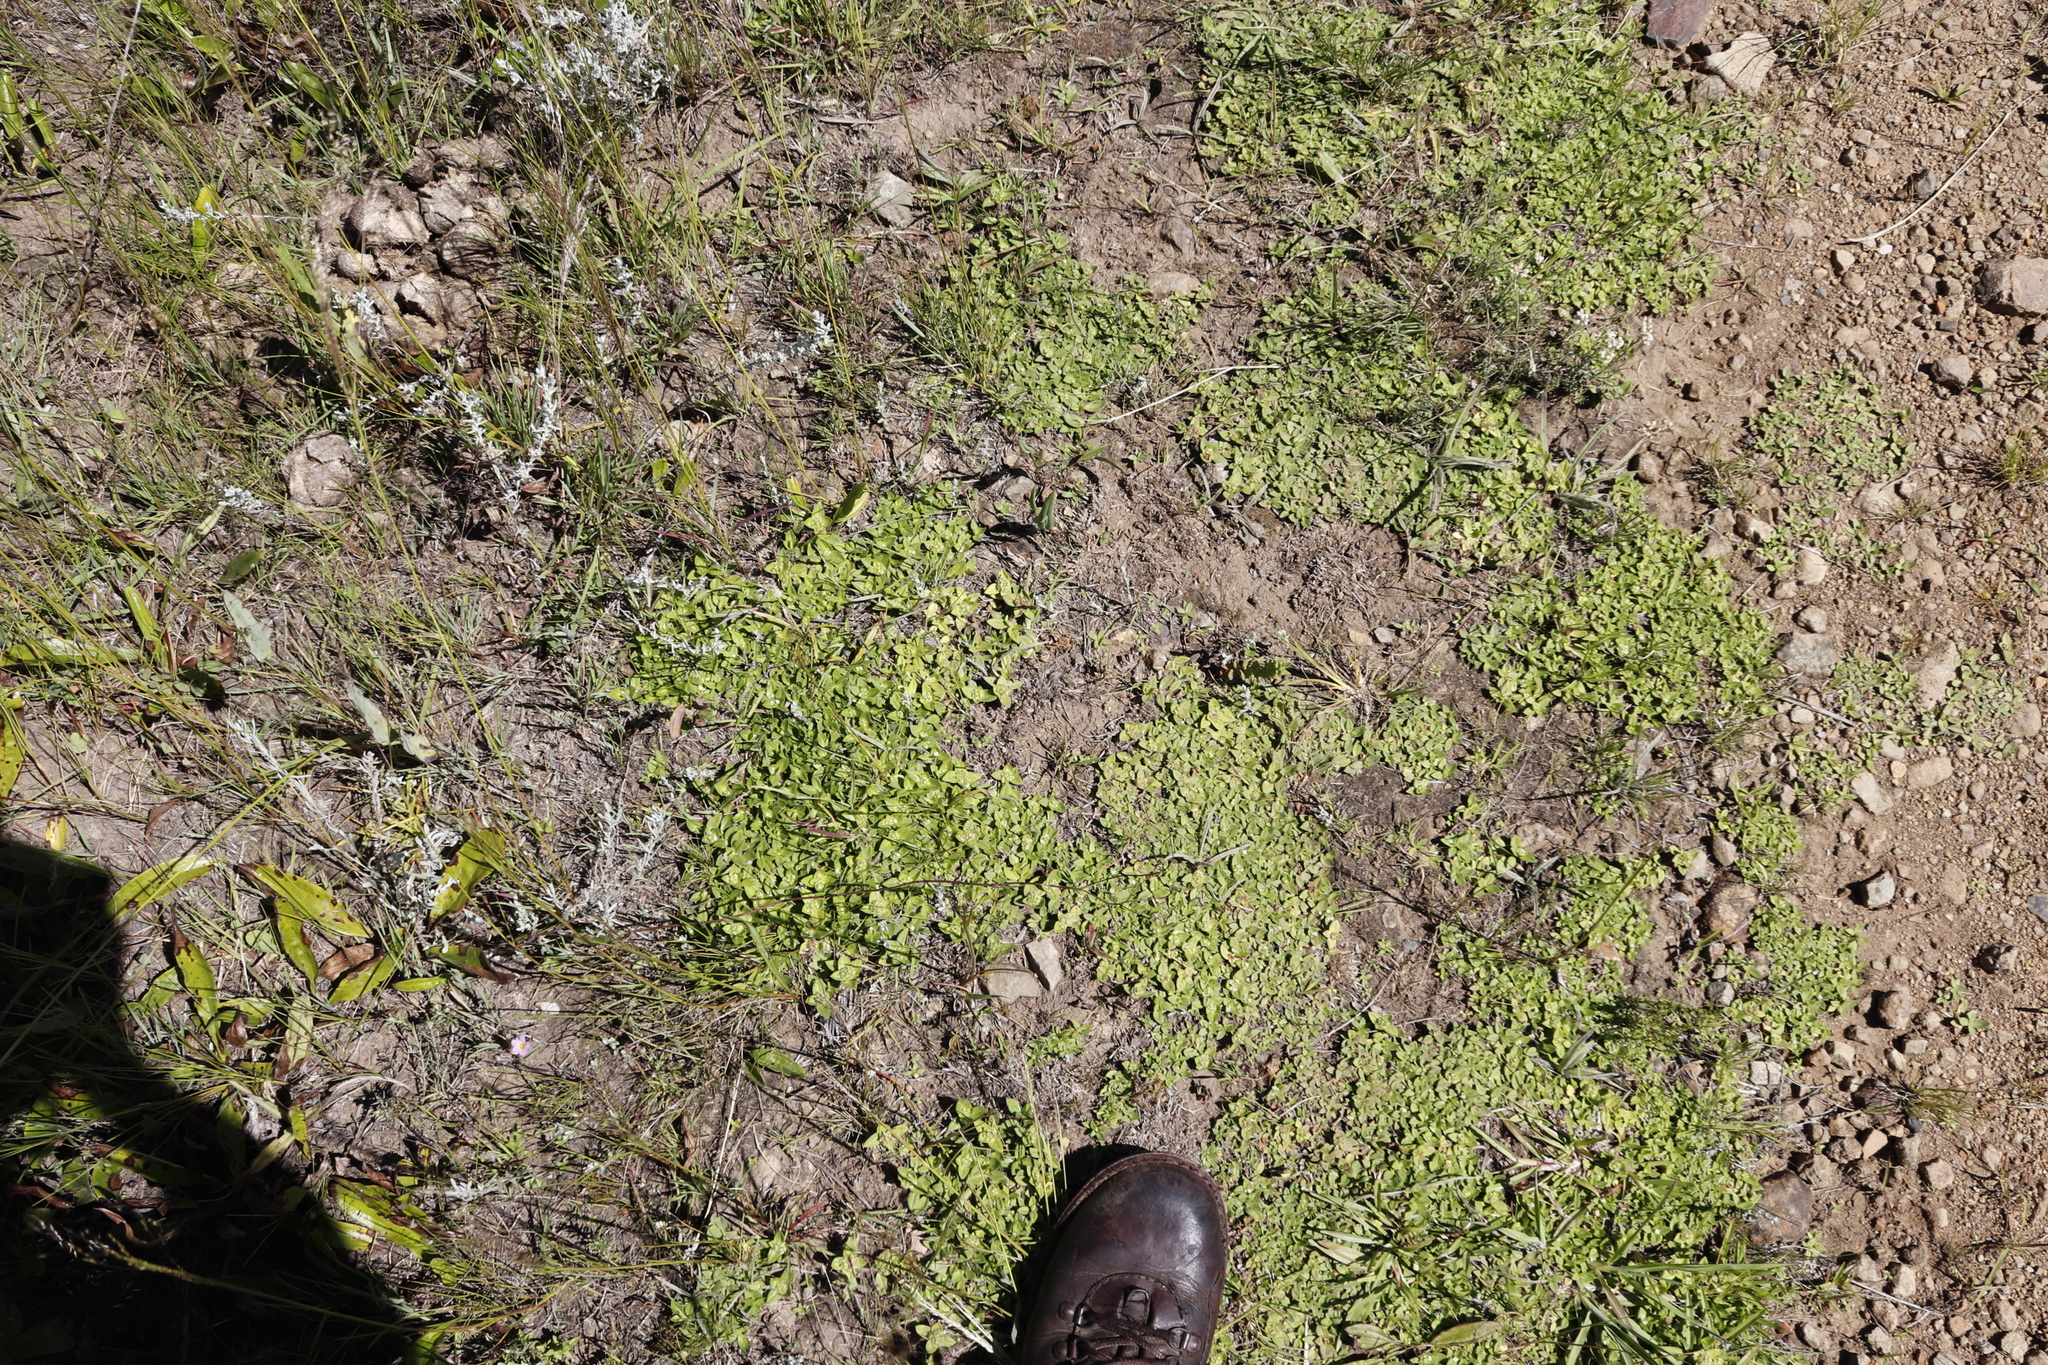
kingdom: Plantae
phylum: Tracheophyta
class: Magnoliopsida
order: Gentianales
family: Rubiaceae
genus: Richardia
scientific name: Richardia brasiliensis
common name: Tropical mexican clover
